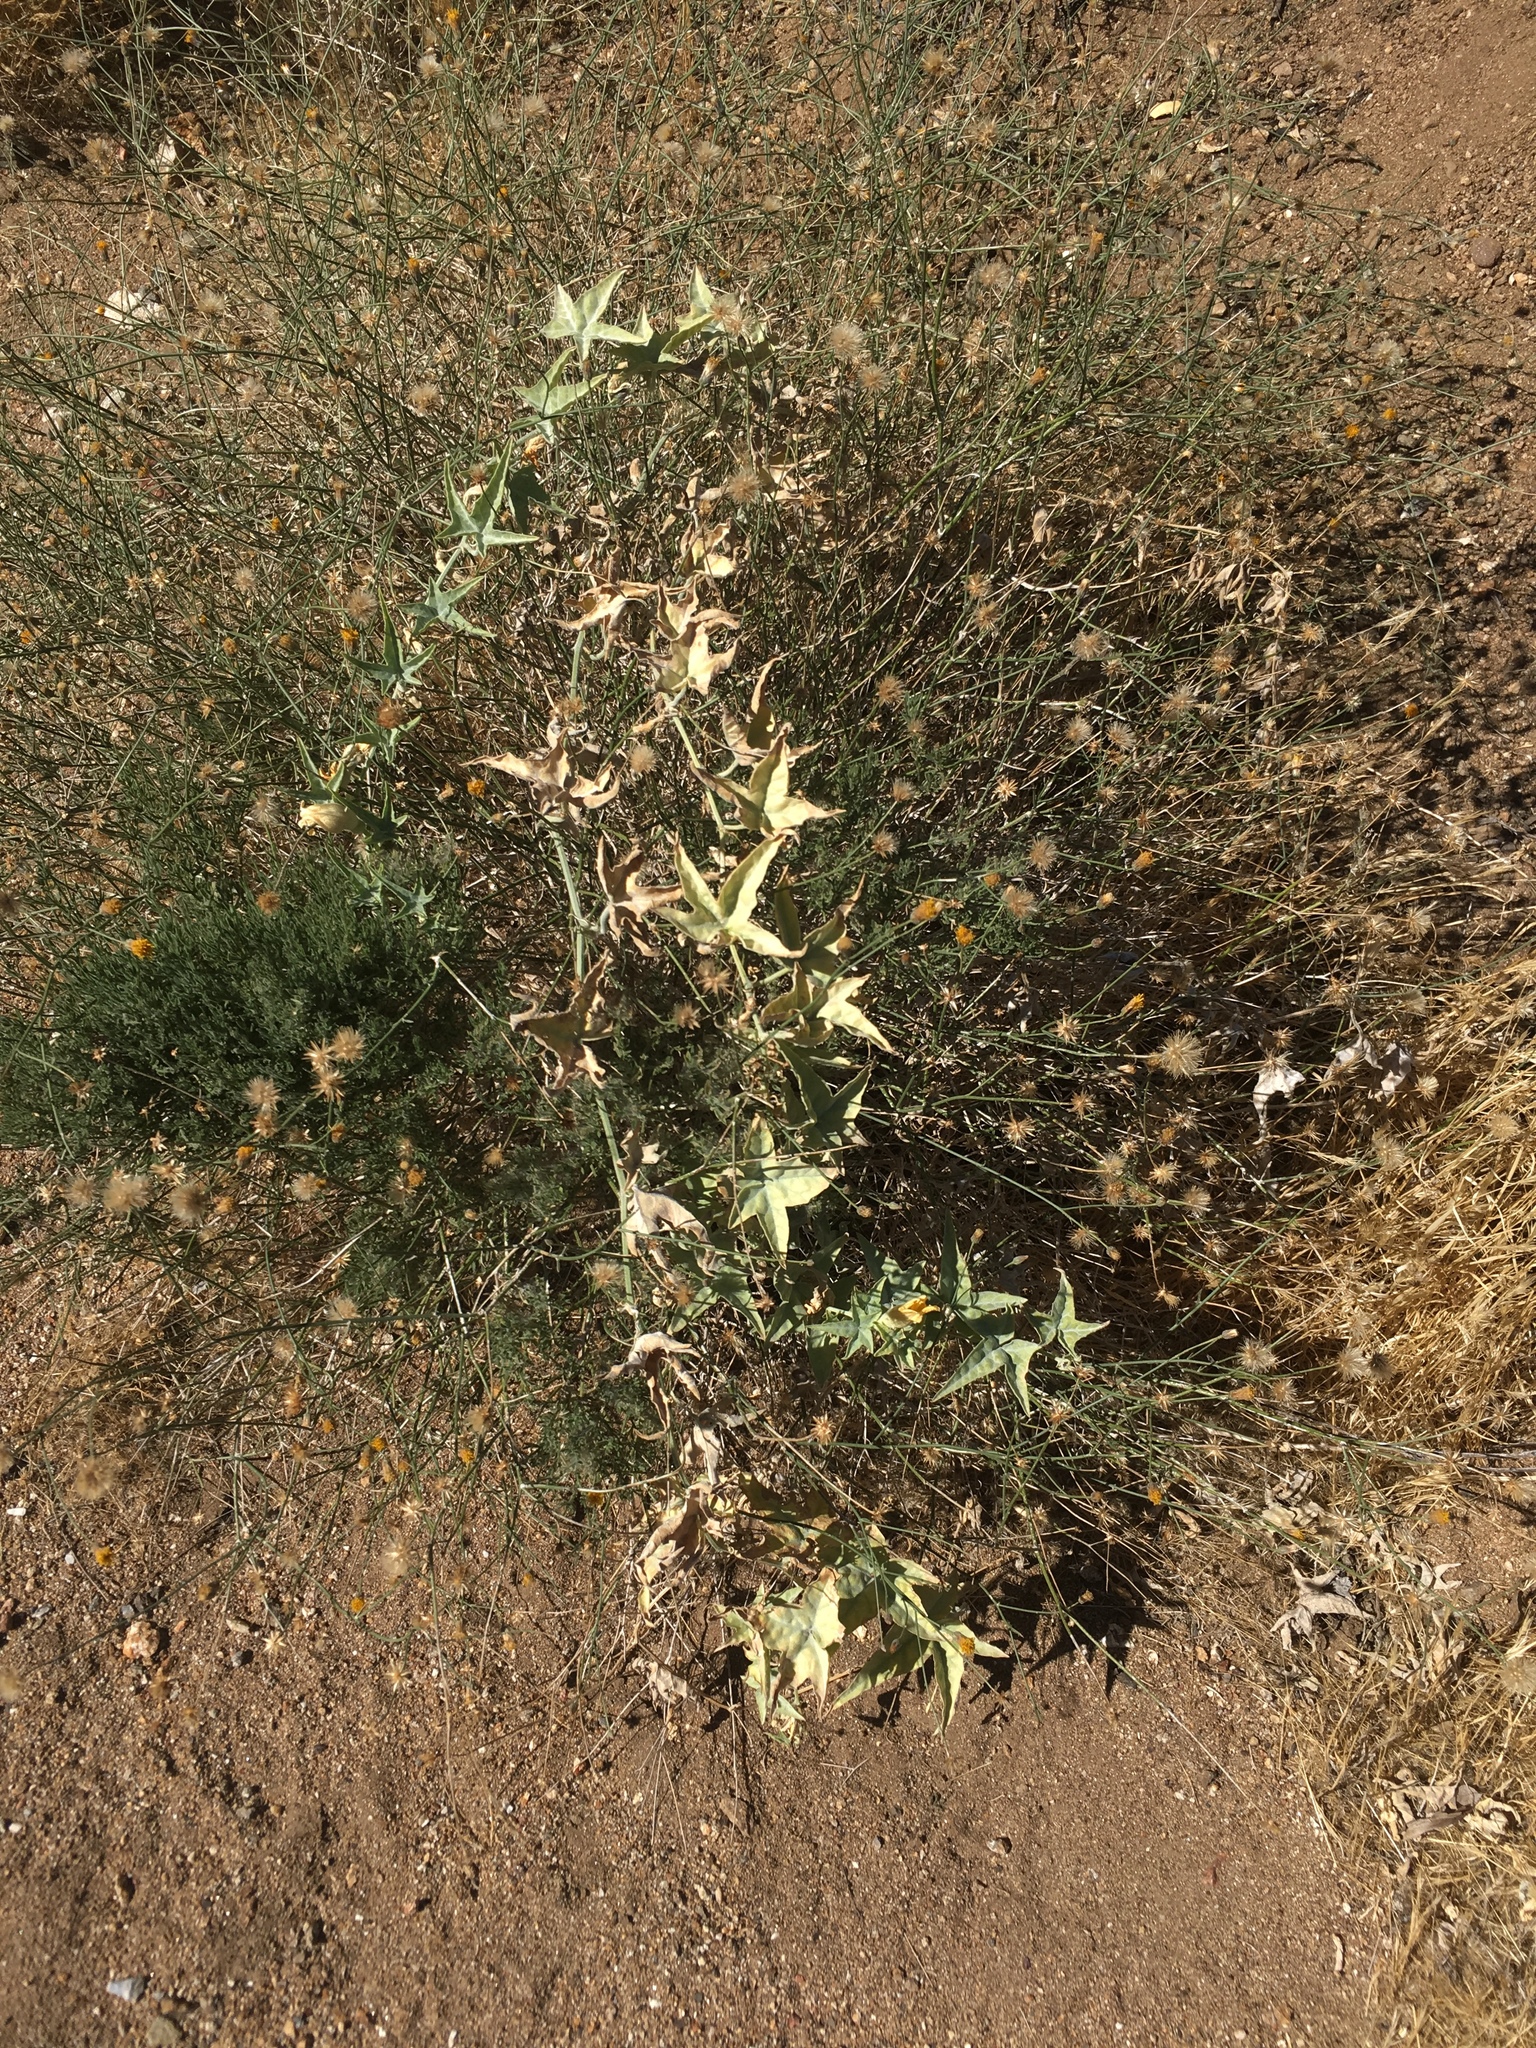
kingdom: Plantae
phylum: Tracheophyta
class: Magnoliopsida
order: Cucurbitales
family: Cucurbitaceae
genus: Cucurbita
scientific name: Cucurbita palmata
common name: Coyote-melon
